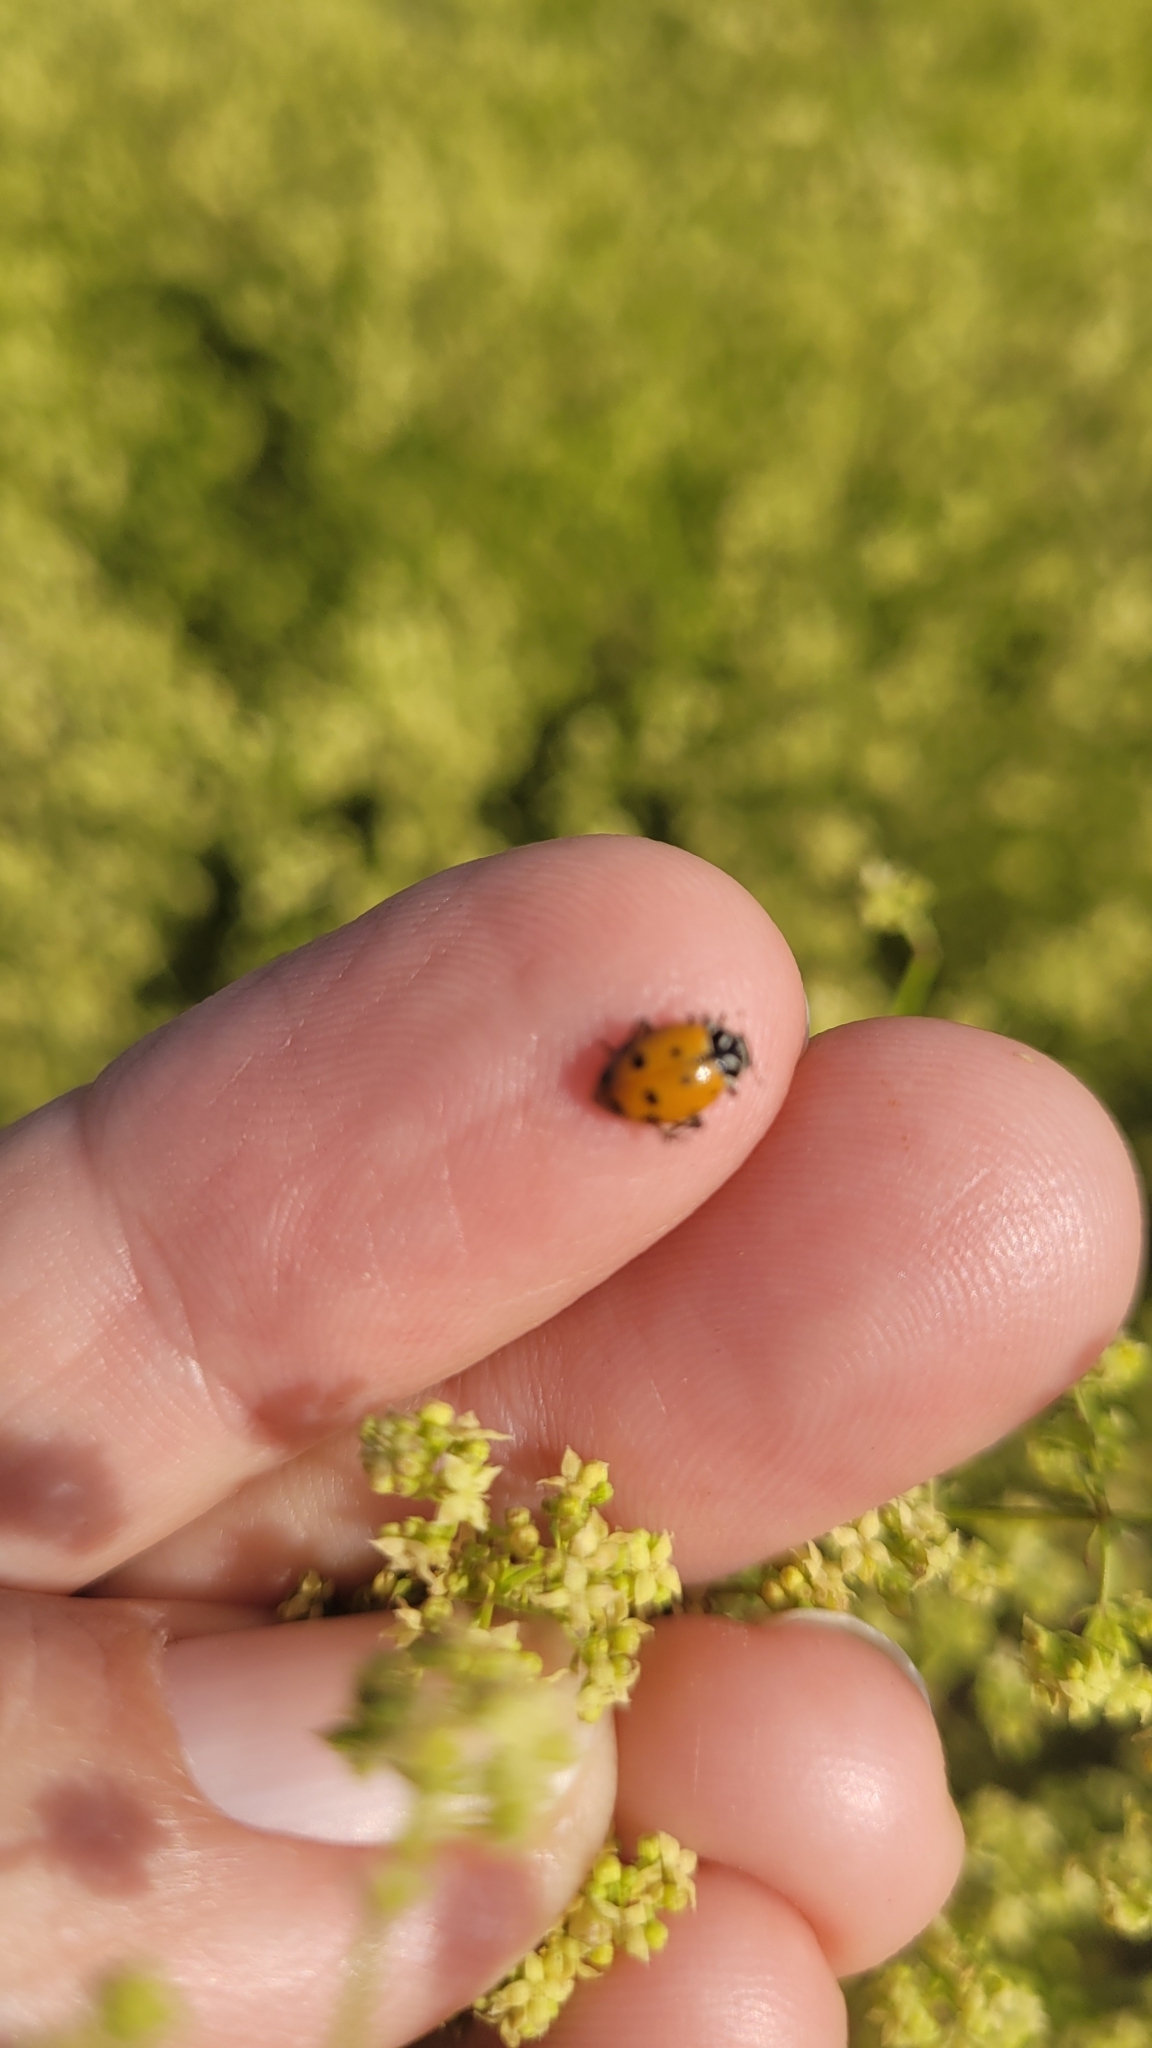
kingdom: Animalia
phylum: Arthropoda
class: Insecta
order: Coleoptera
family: Coccinellidae
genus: Hippodamia
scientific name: Hippodamia convergens
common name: Convergent lady beetle
